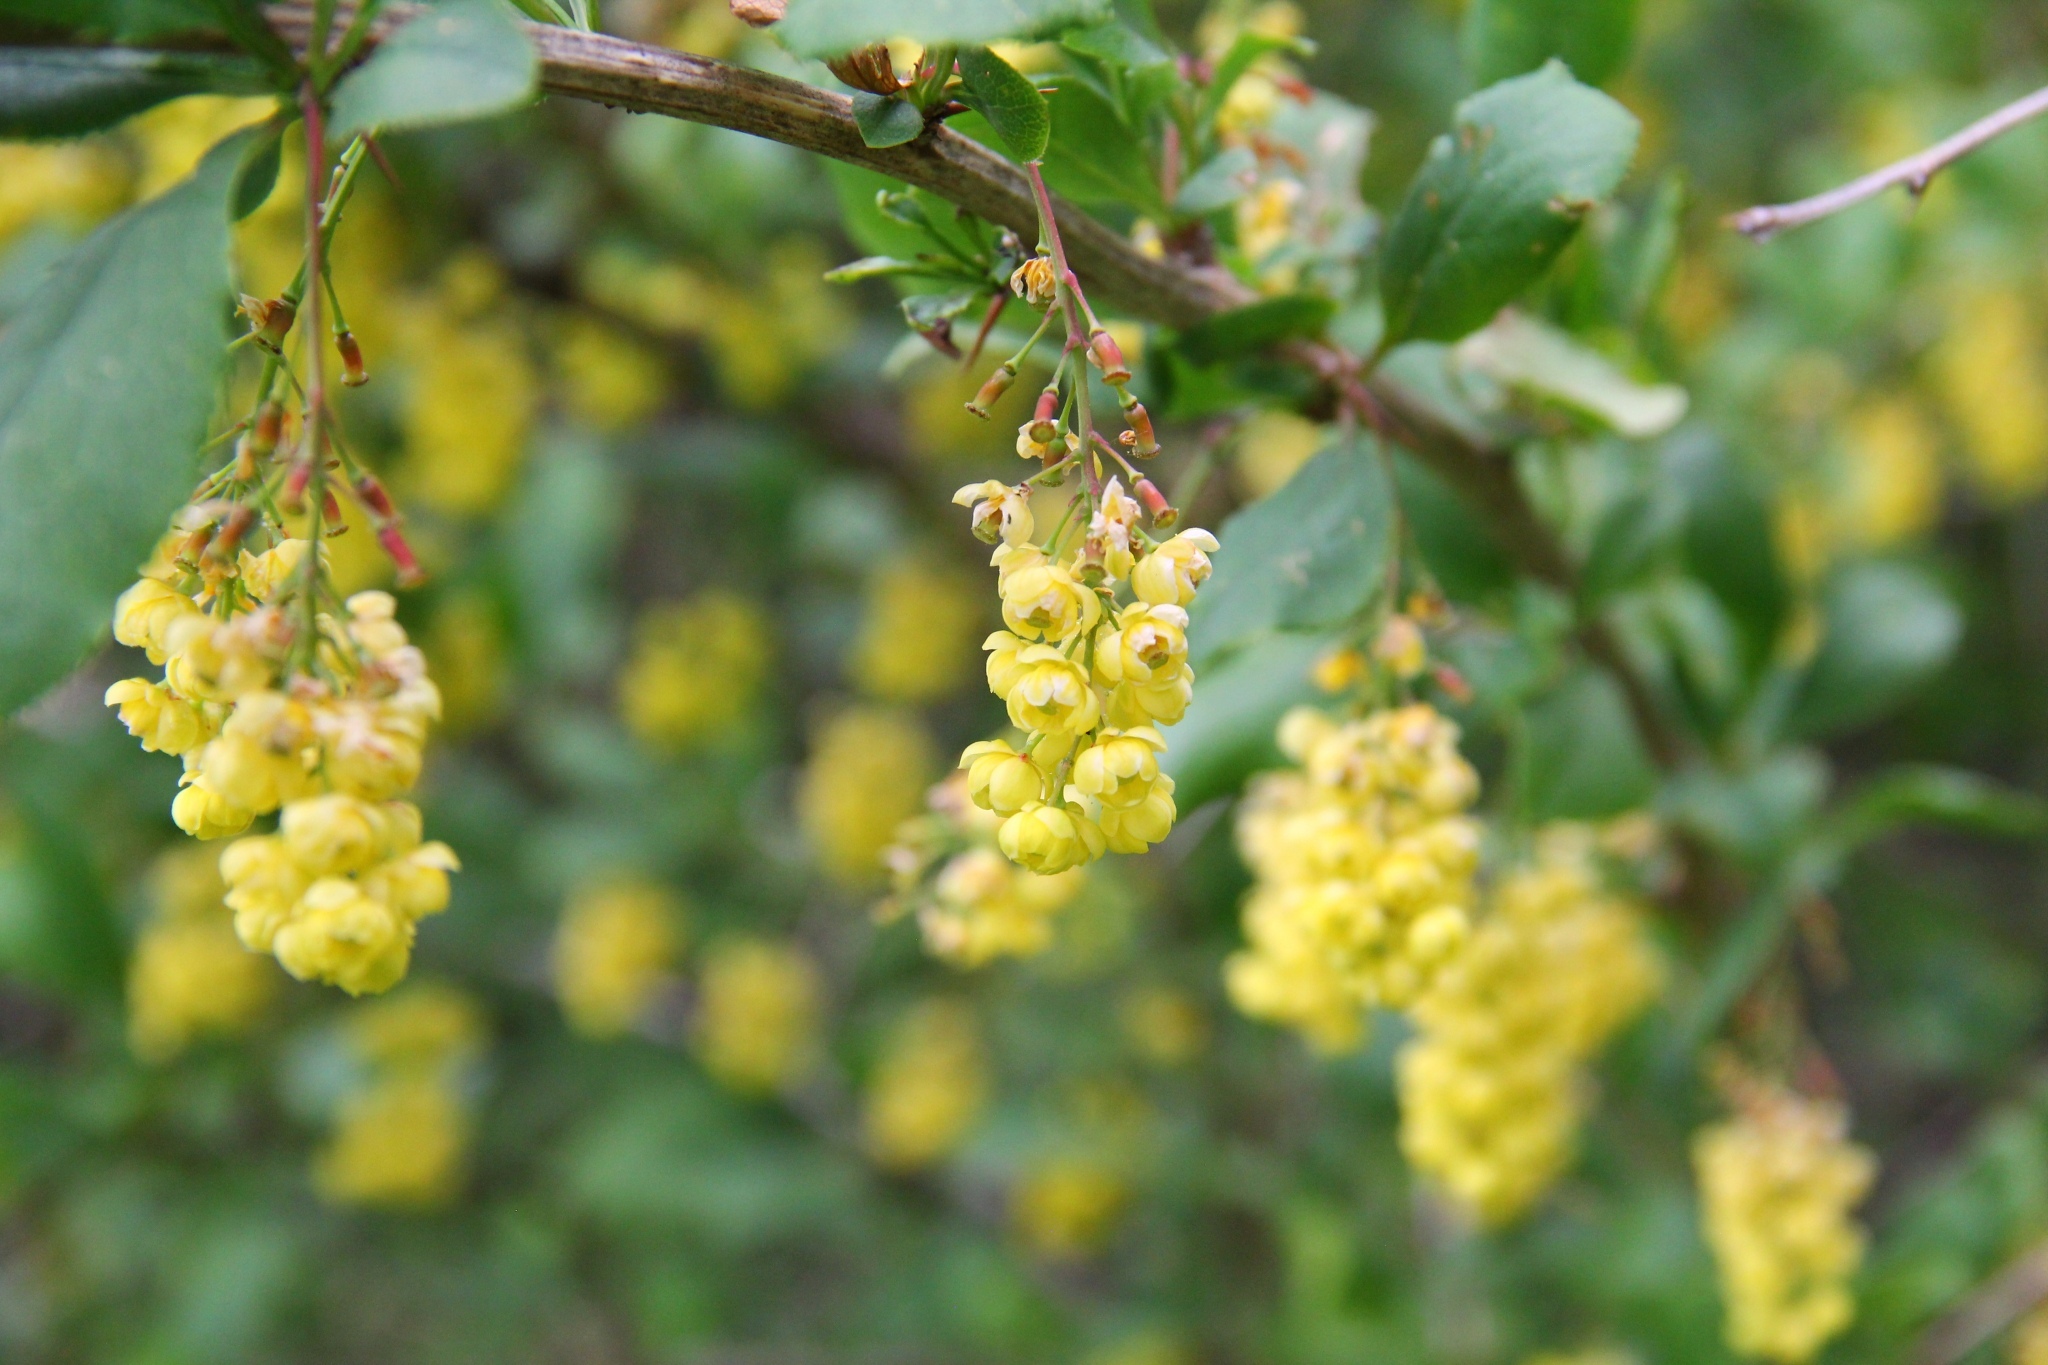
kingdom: Plantae
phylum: Tracheophyta
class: Magnoliopsida
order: Ranunculales
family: Berberidaceae
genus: Berberis
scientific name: Berberis vulgaris
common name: Barberry
